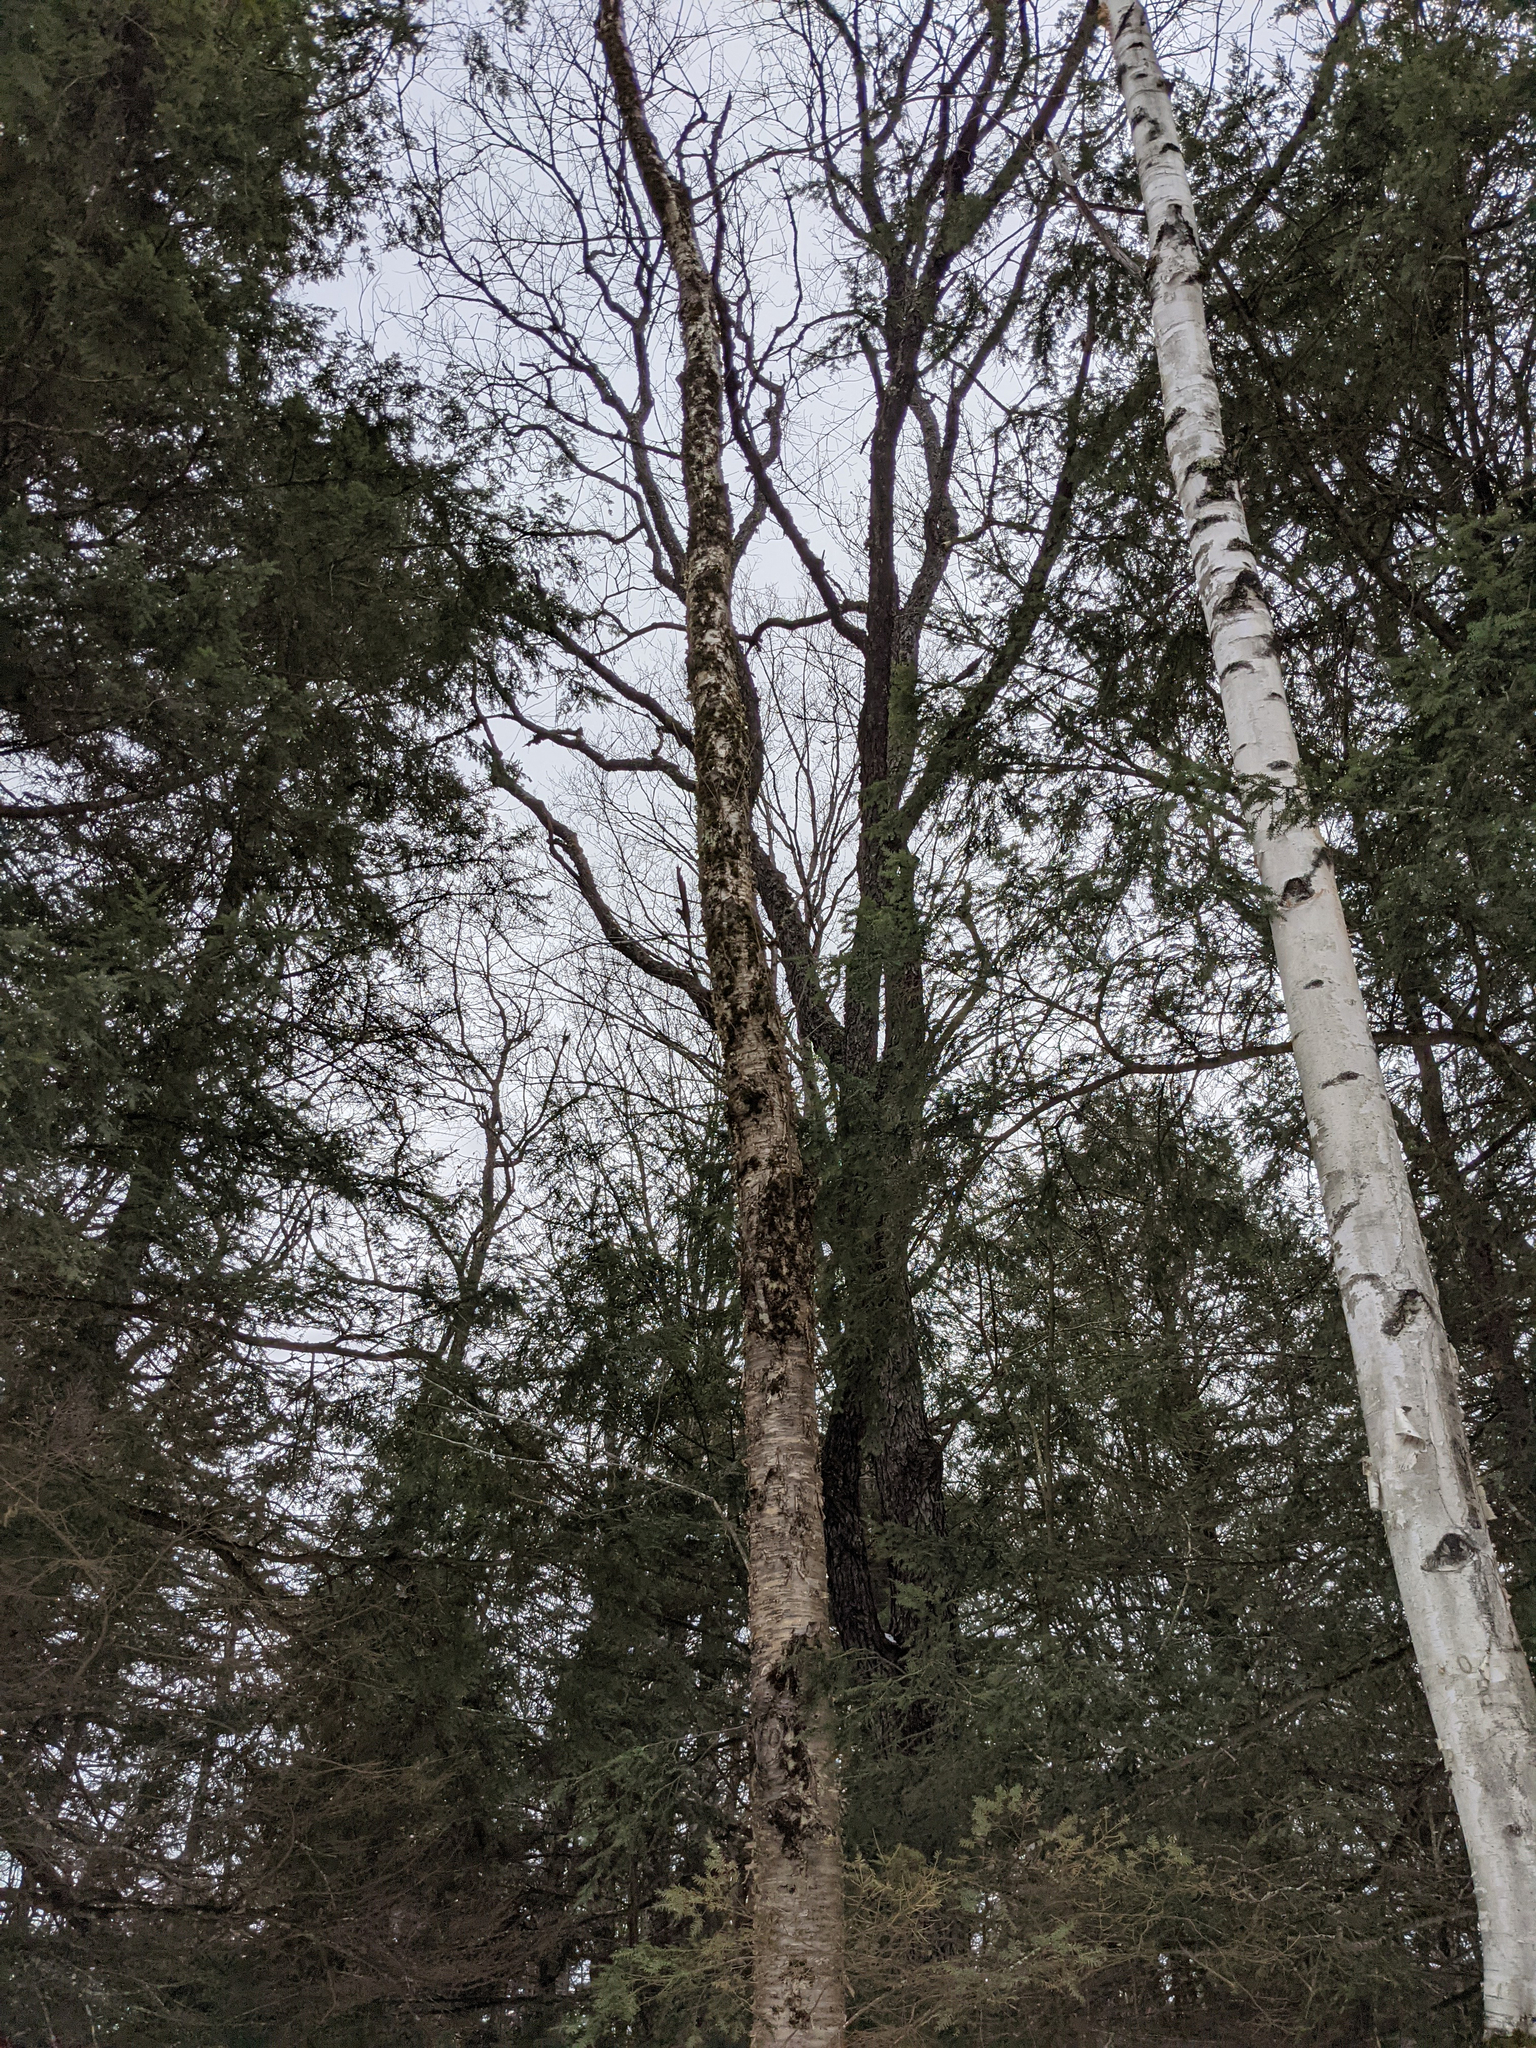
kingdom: Plantae
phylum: Tracheophyta
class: Magnoliopsida
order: Fagales
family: Betulaceae
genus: Betula
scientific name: Betula alleghaniensis
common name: Yellow birch
